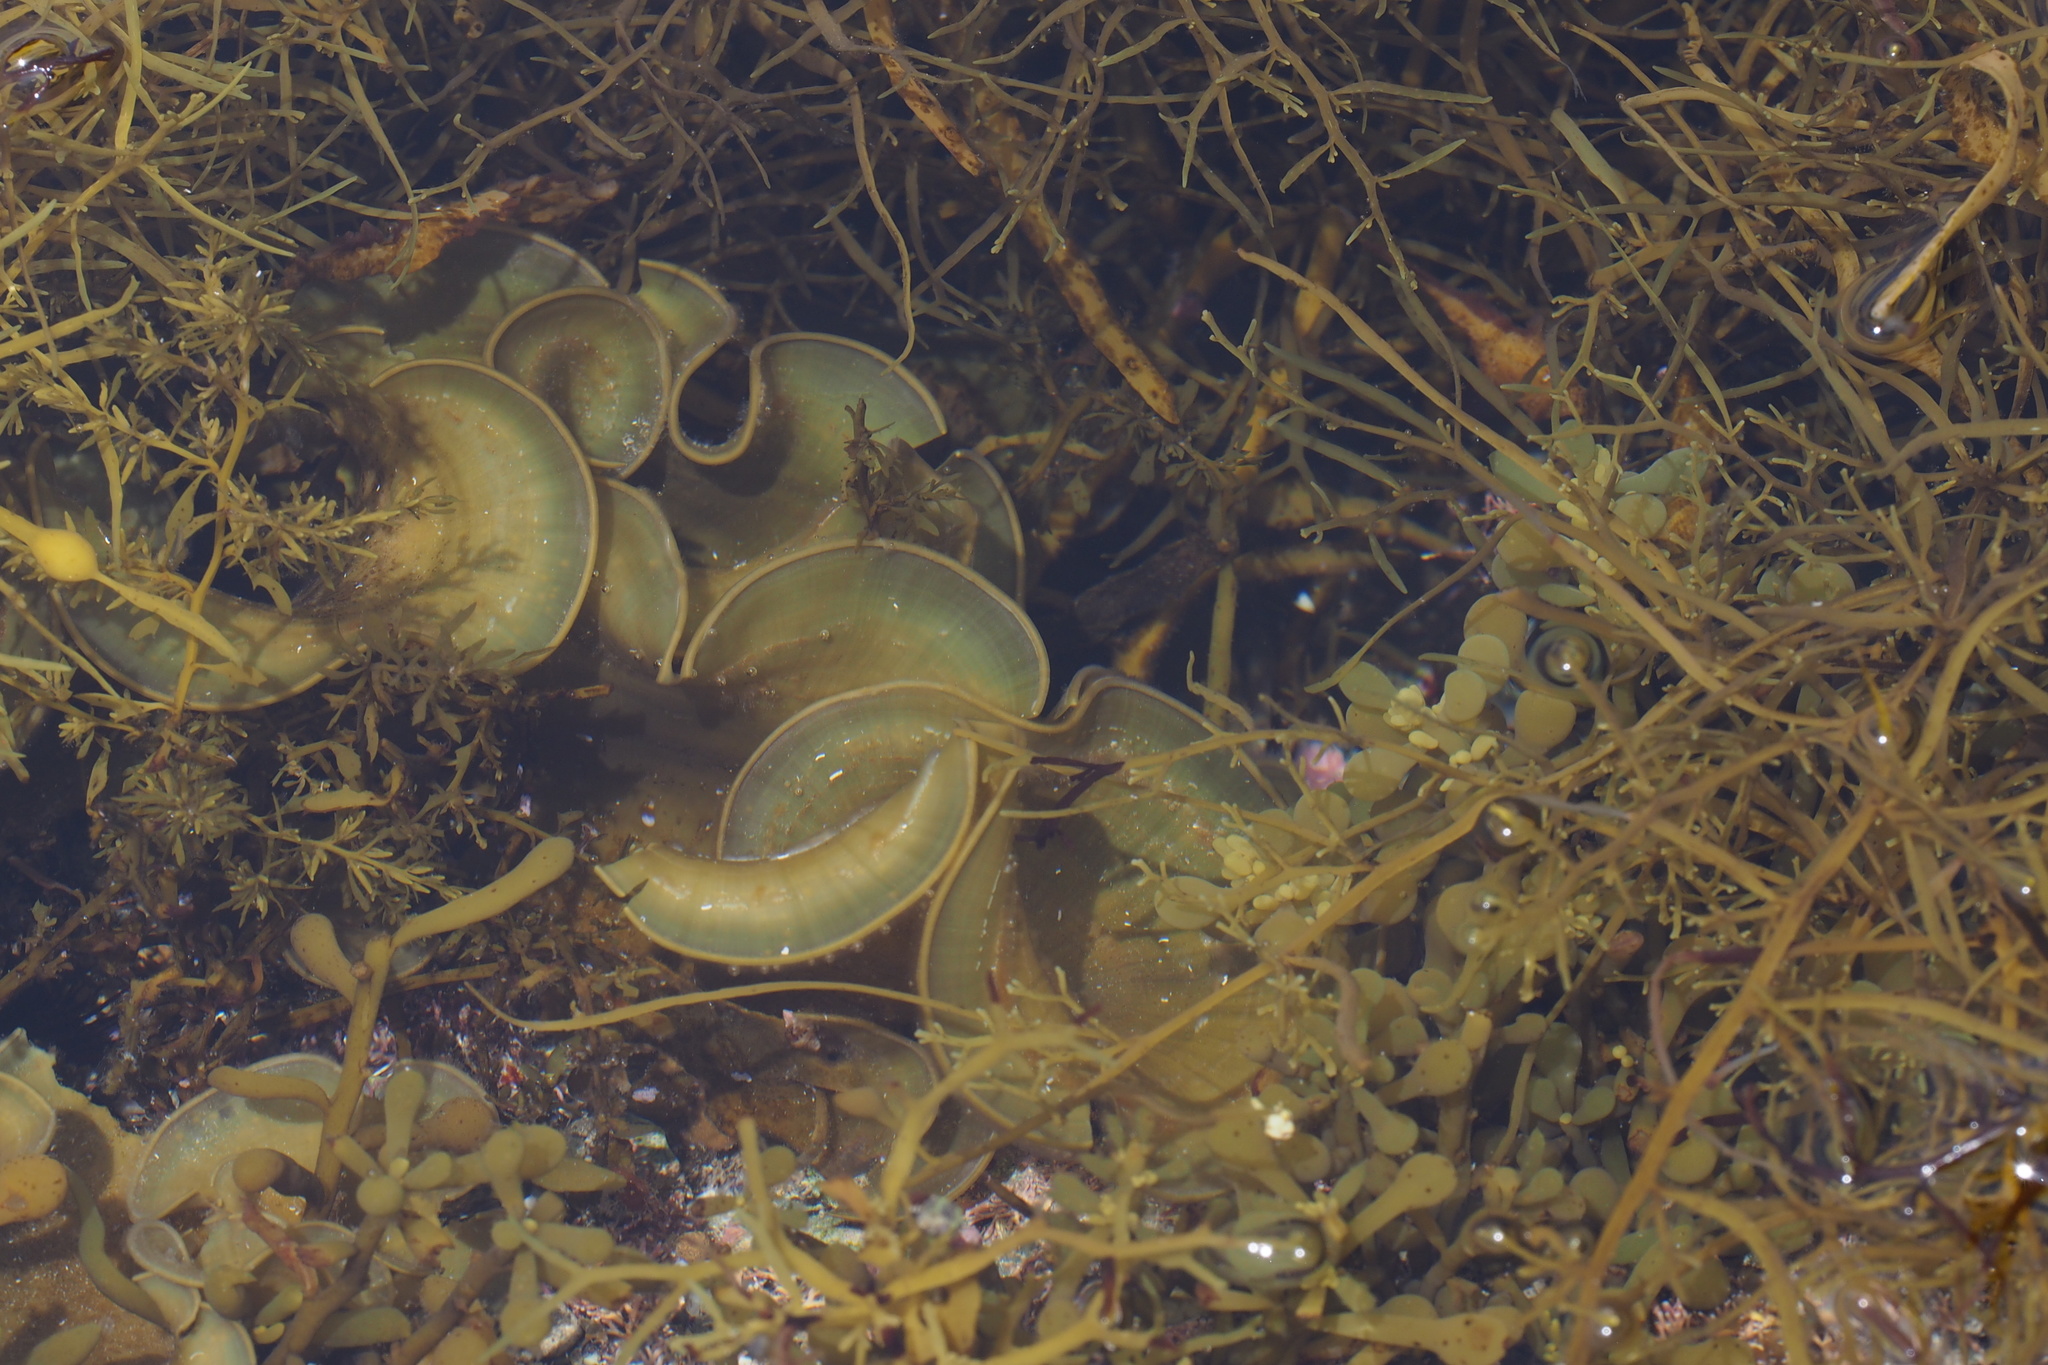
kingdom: Chromista
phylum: Ochrophyta
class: Phaeophyceae
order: Dictyotales
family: Dictyotaceae
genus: Padina
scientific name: Padina arborescens
